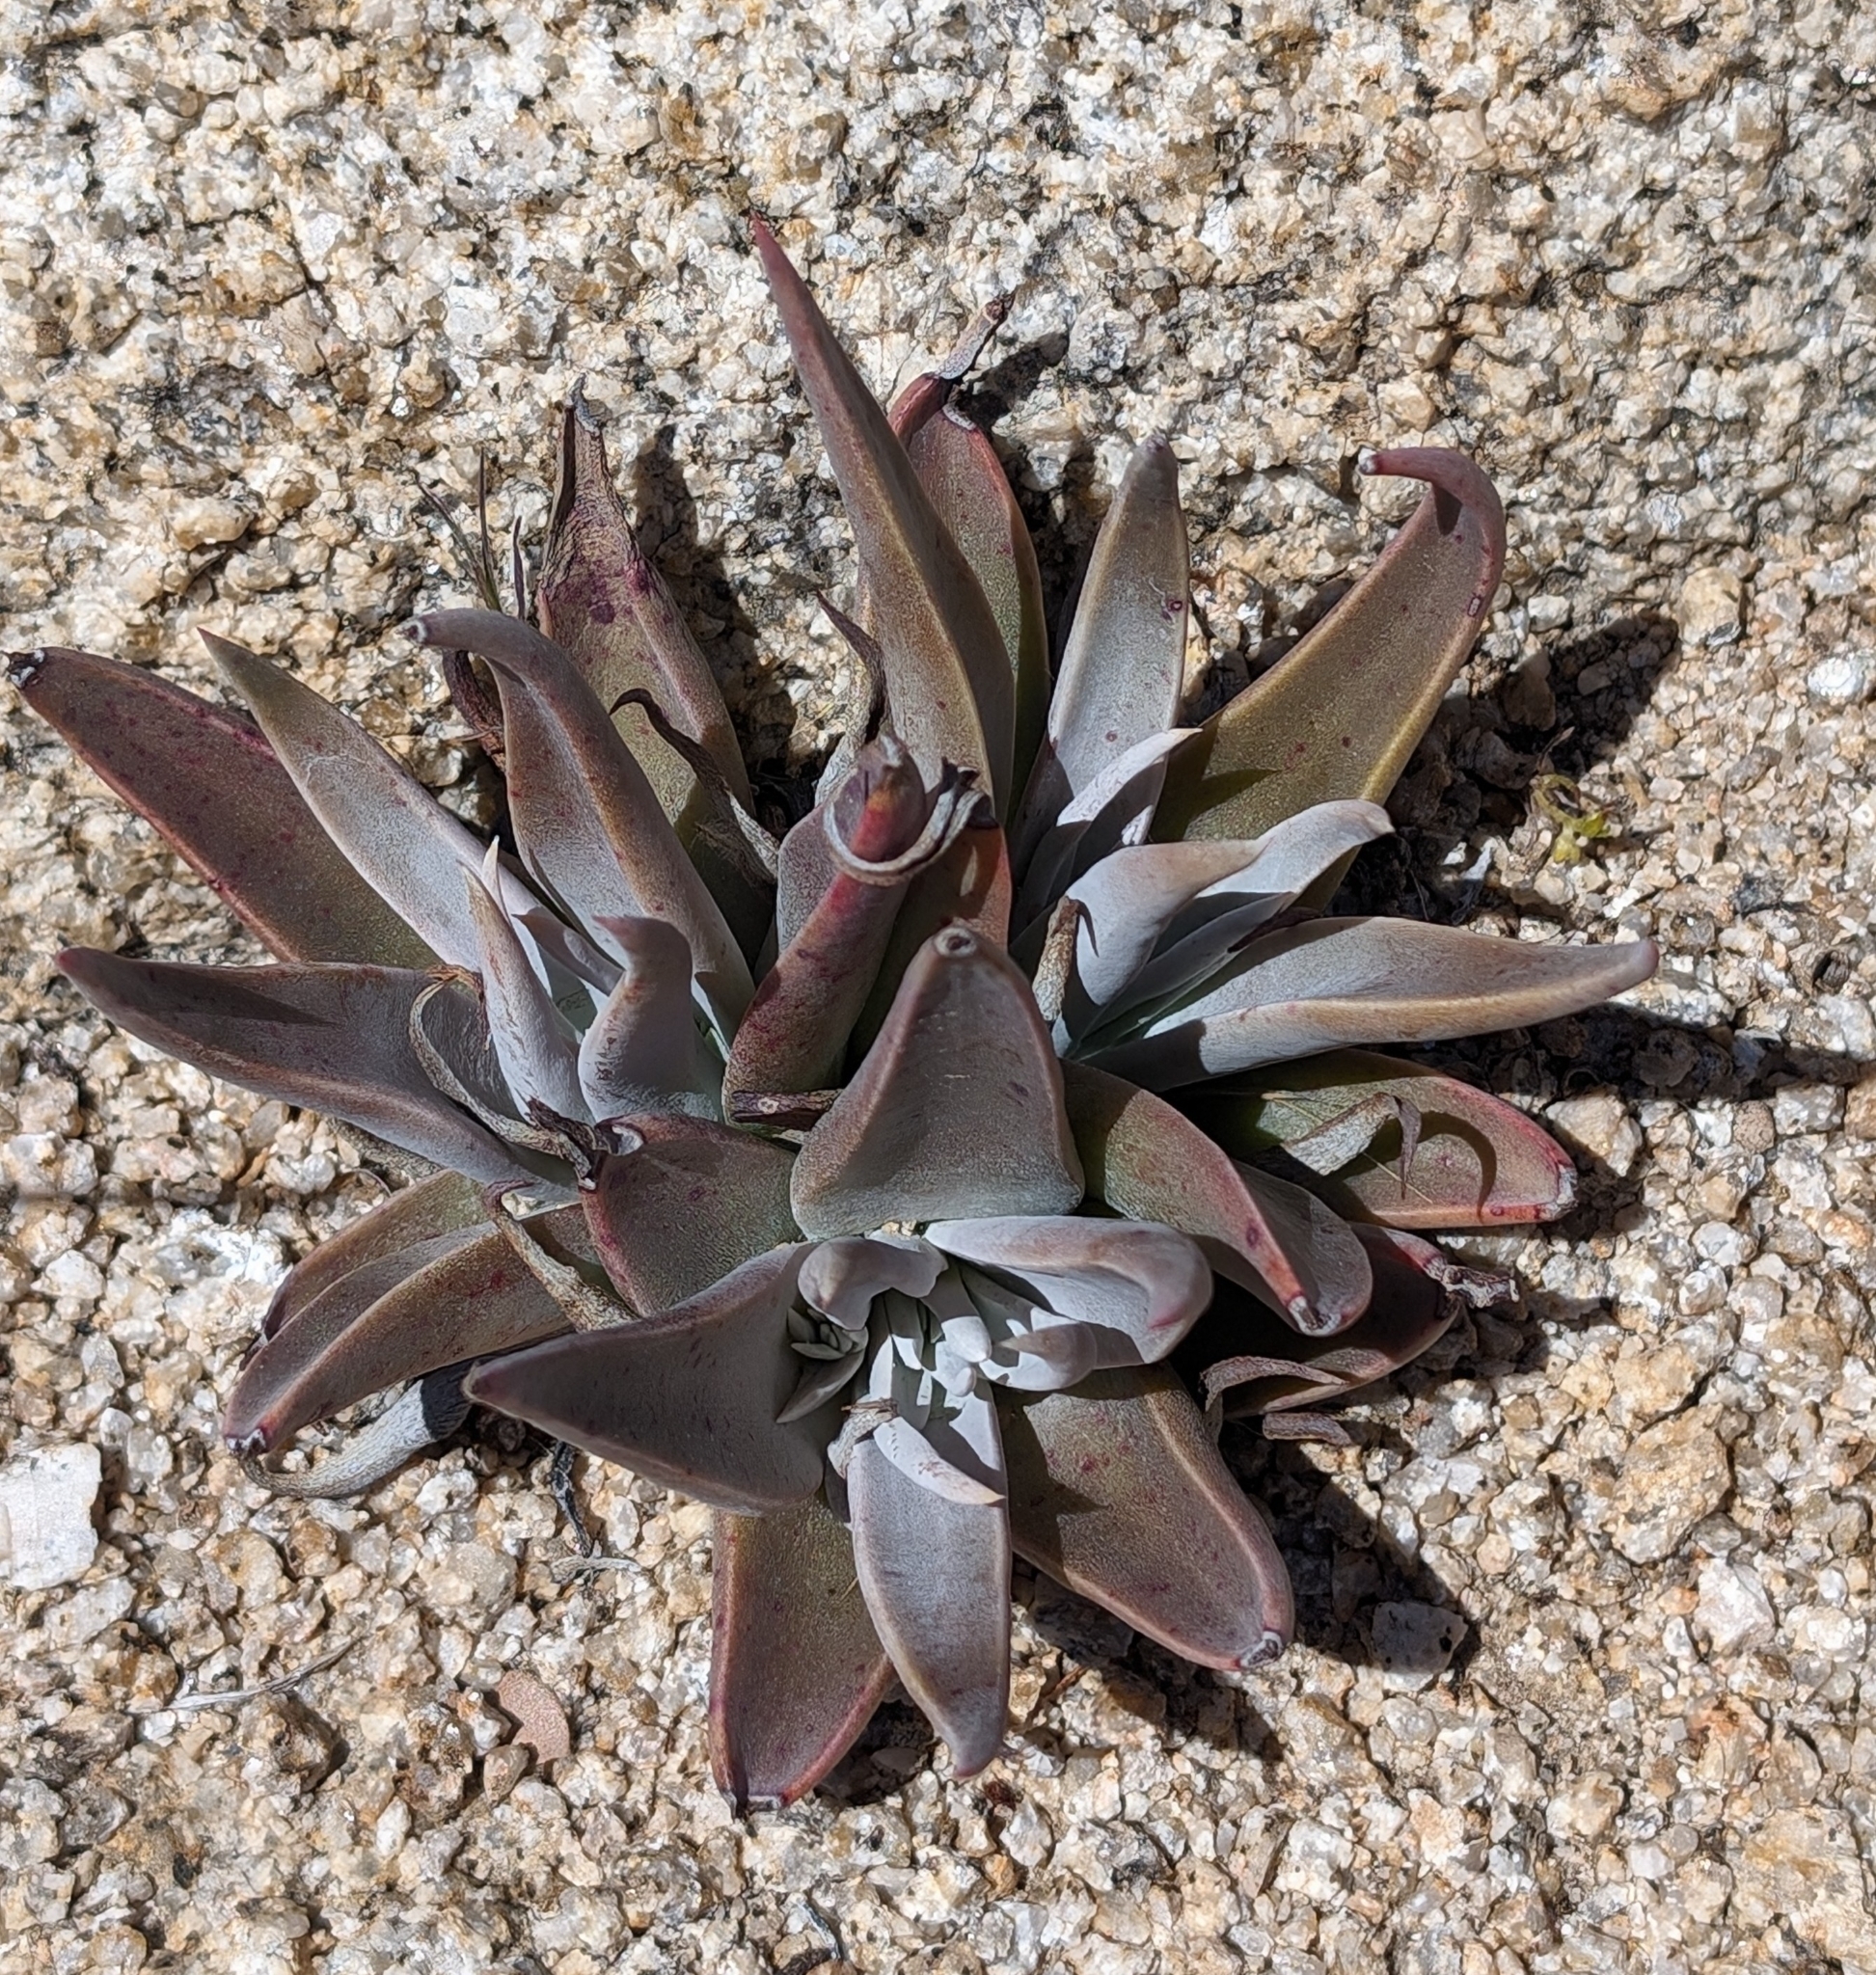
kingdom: Plantae
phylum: Tracheophyta
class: Magnoliopsida
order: Saxifragales
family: Crassulaceae
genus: Dudleya
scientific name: Dudleya saxosa
